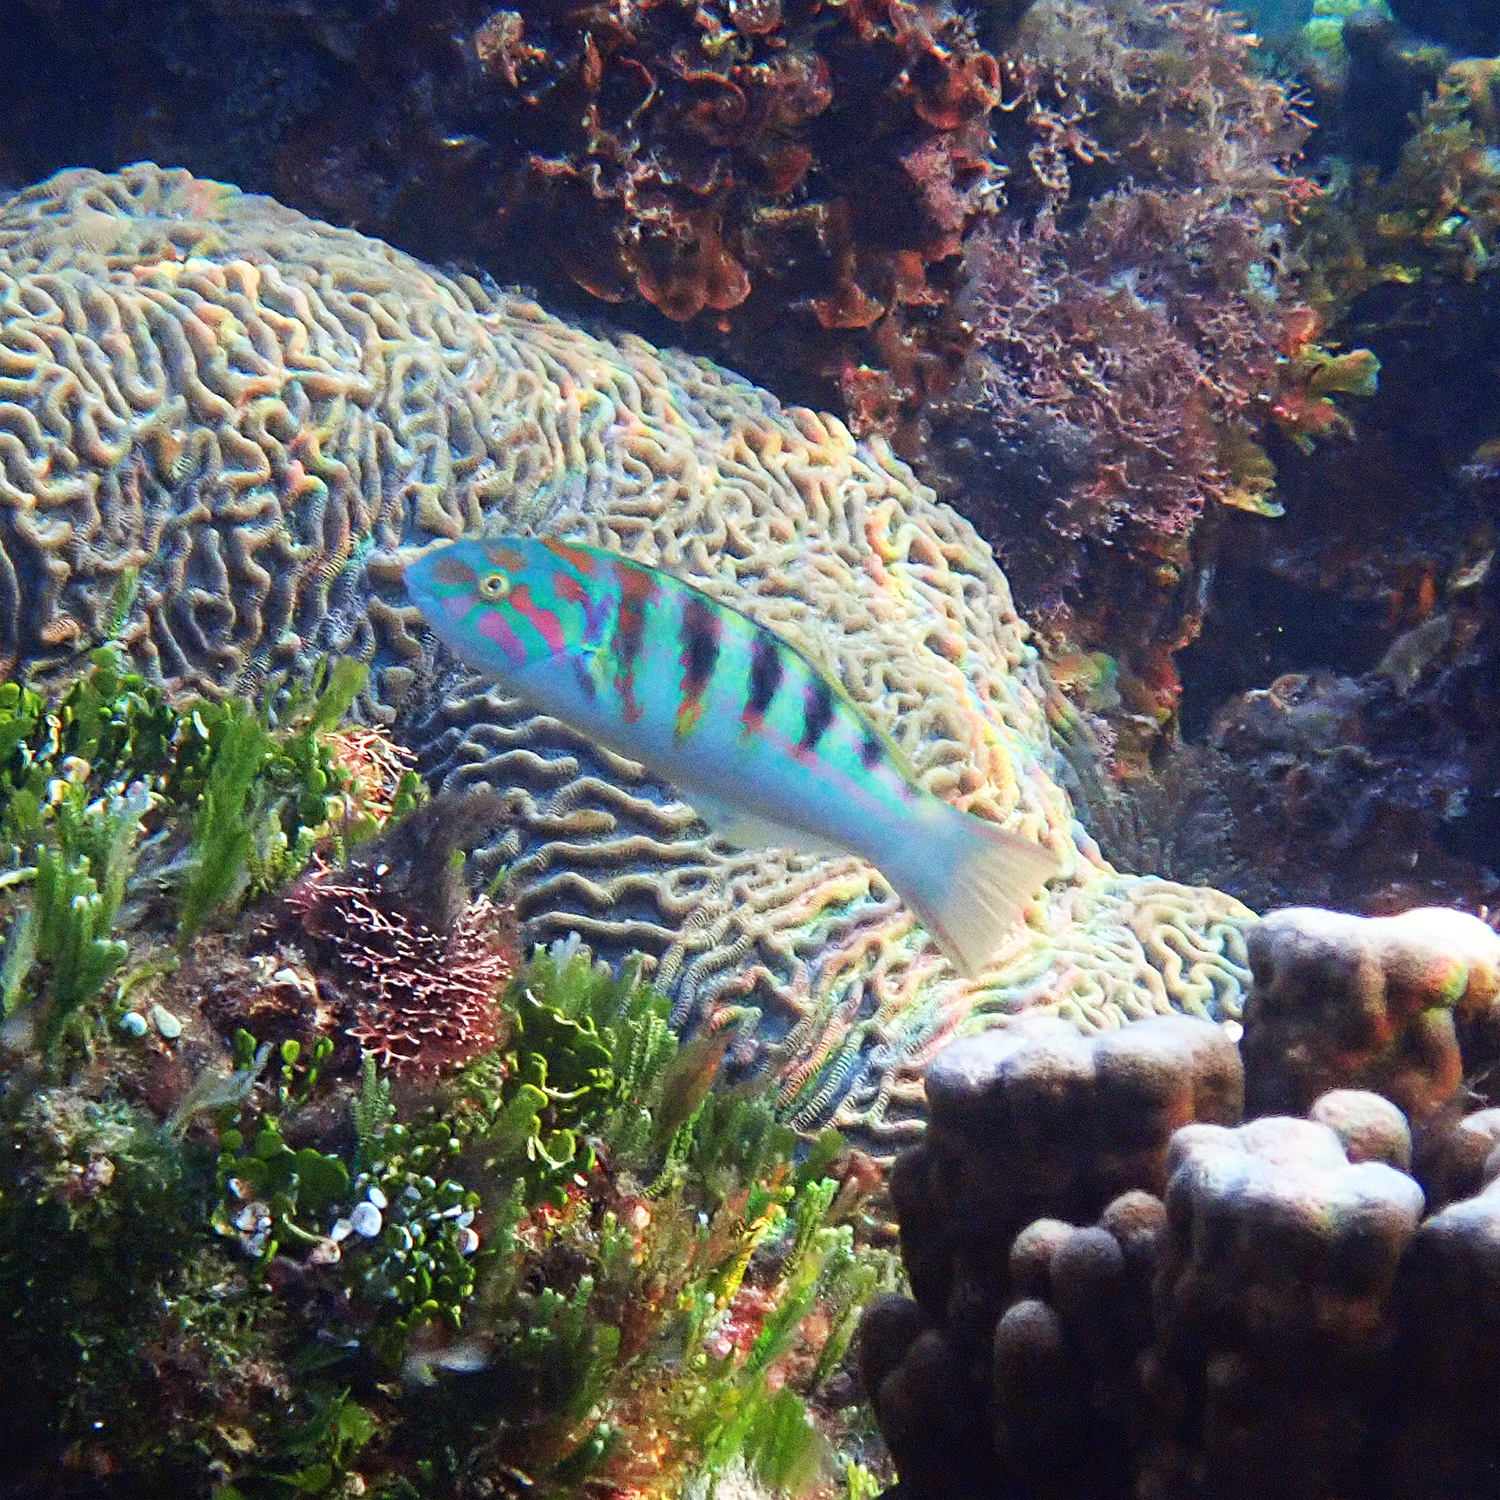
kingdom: Animalia
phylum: Chordata
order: Perciformes
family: Labridae
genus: Thalassoma
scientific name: Thalassoma hardwicke
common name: Sixbar wrasse
